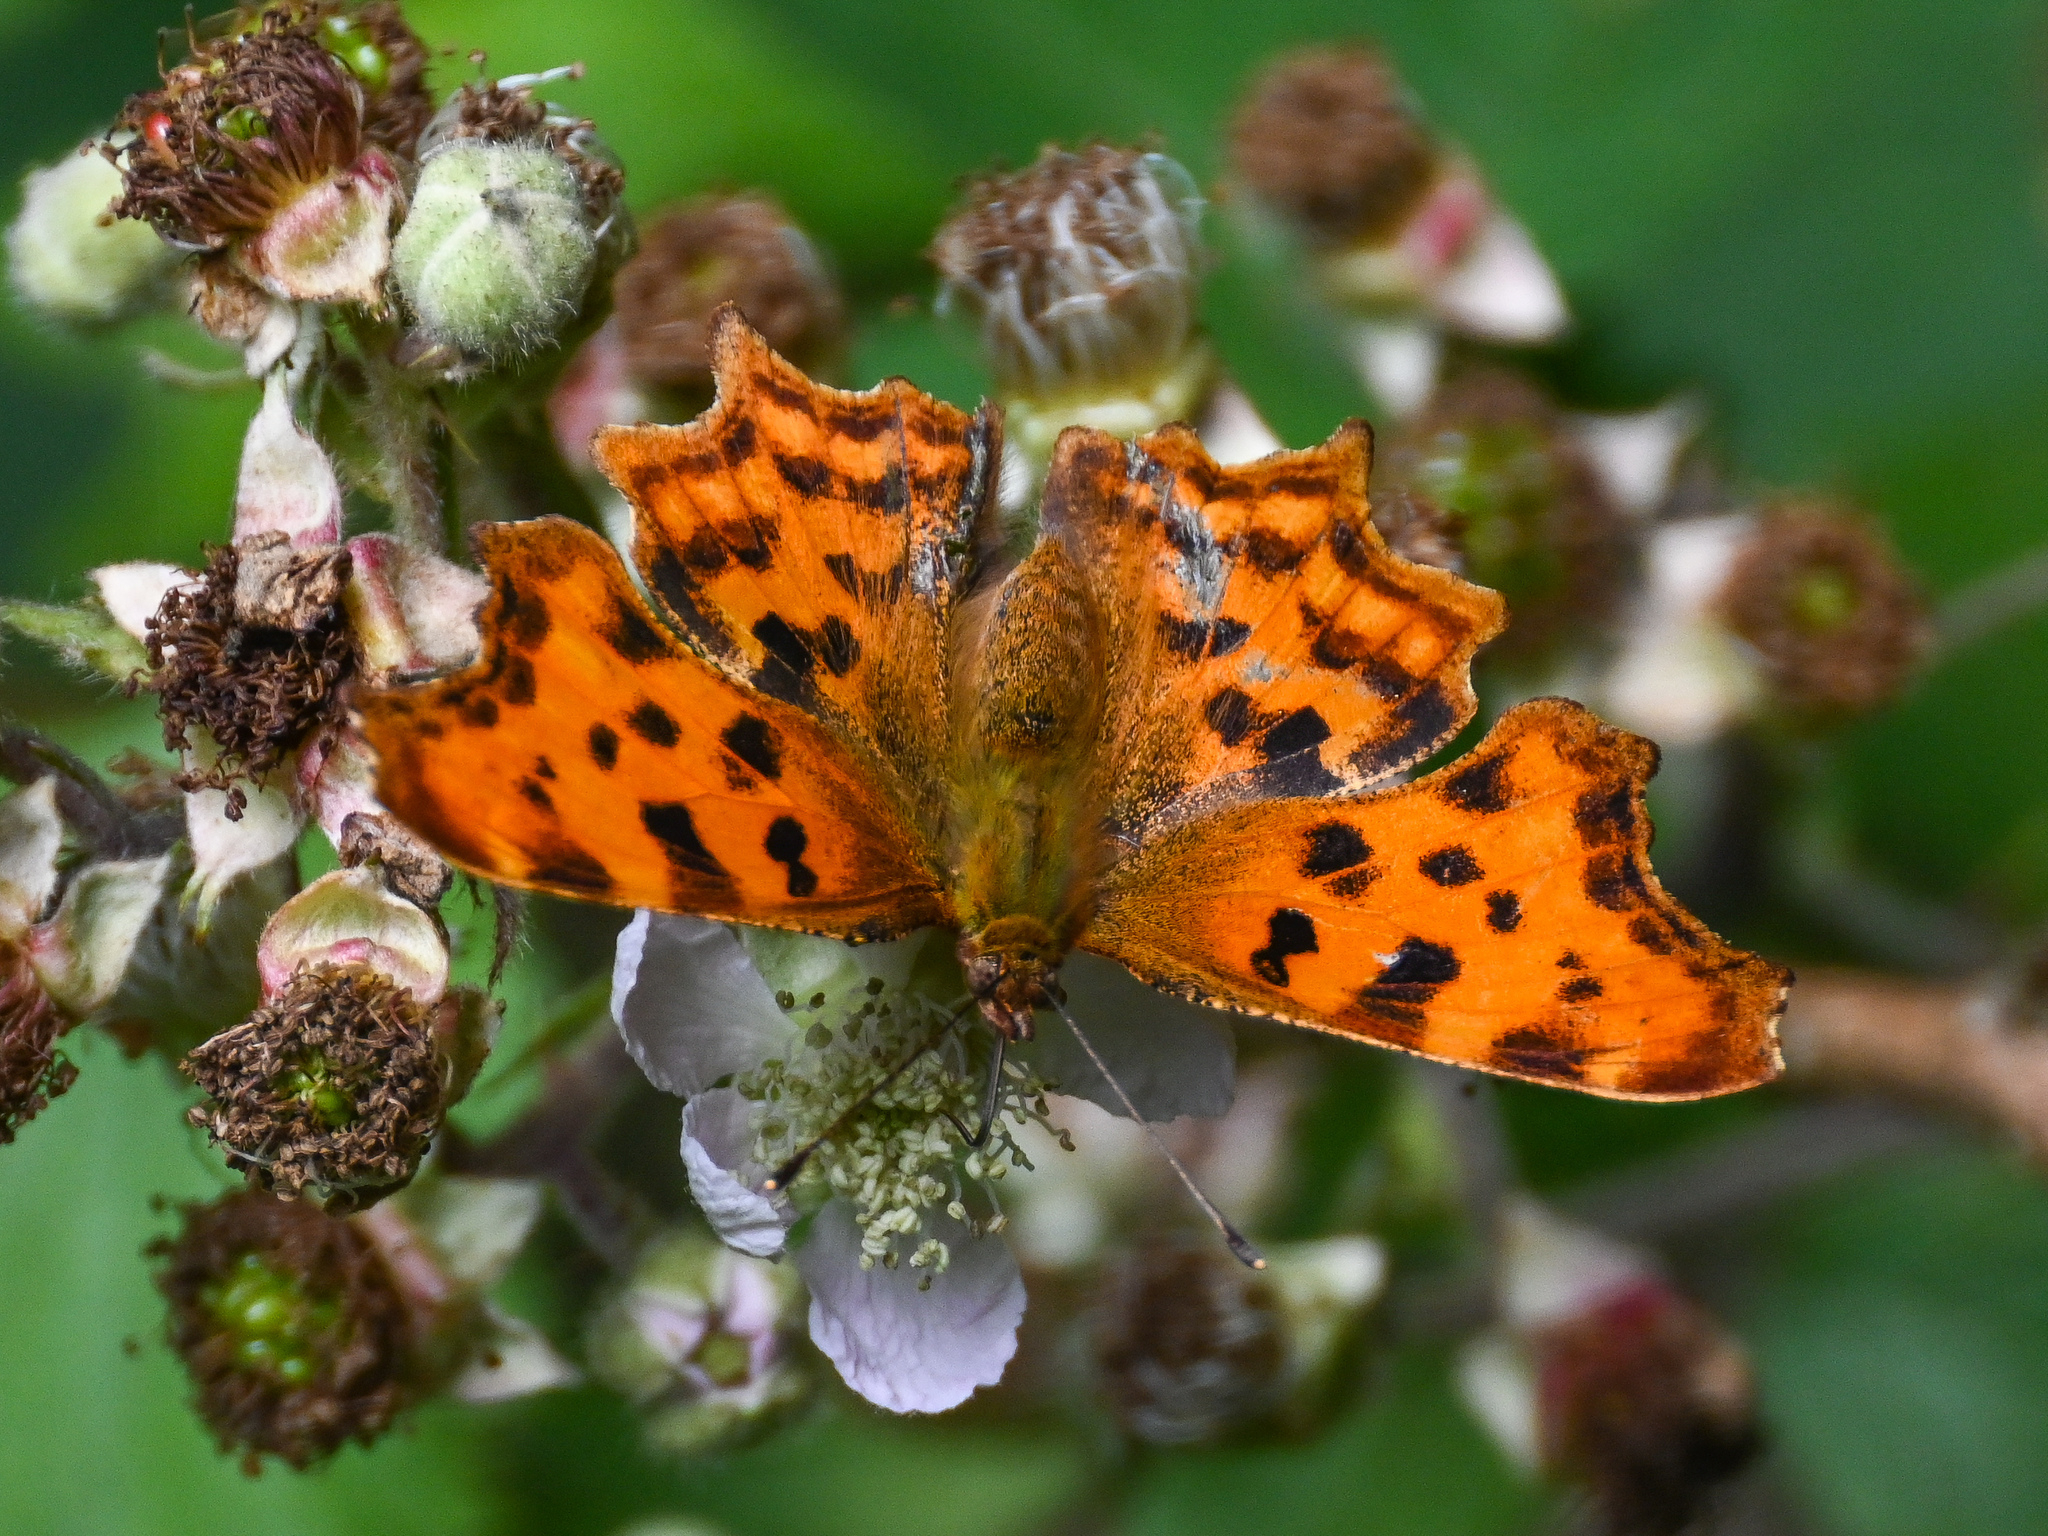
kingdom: Animalia
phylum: Arthropoda
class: Insecta
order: Lepidoptera
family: Nymphalidae
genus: Polygonia
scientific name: Polygonia c-album
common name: Comma
